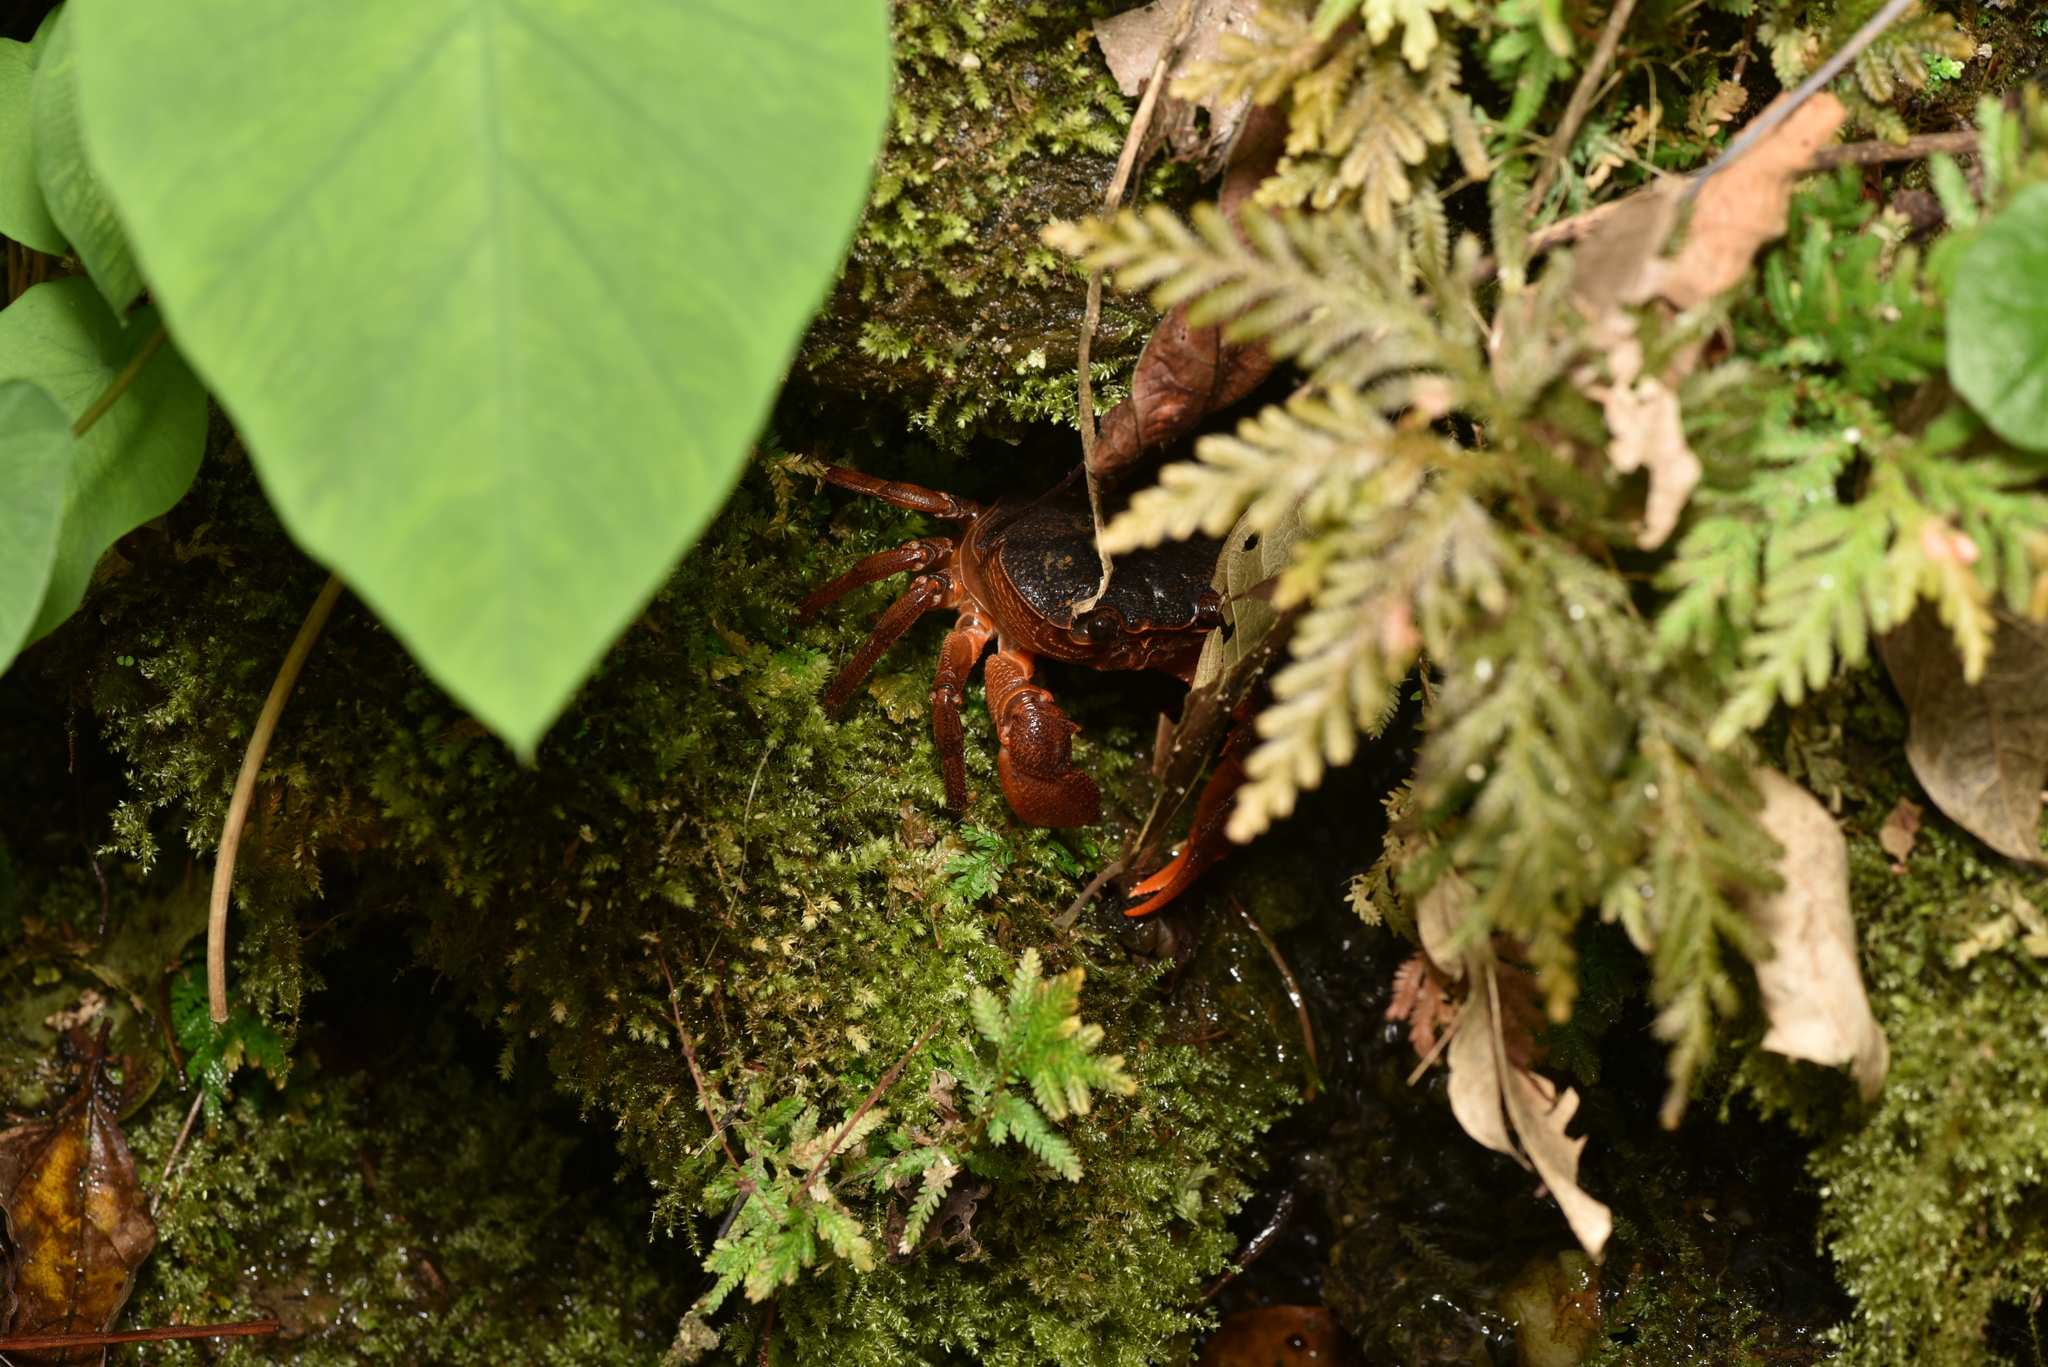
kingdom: Animalia
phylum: Arthropoda
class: Malacostraca
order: Decapoda
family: Potamidae
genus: Candidiopotamon
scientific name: Candidiopotamon rathbuni
